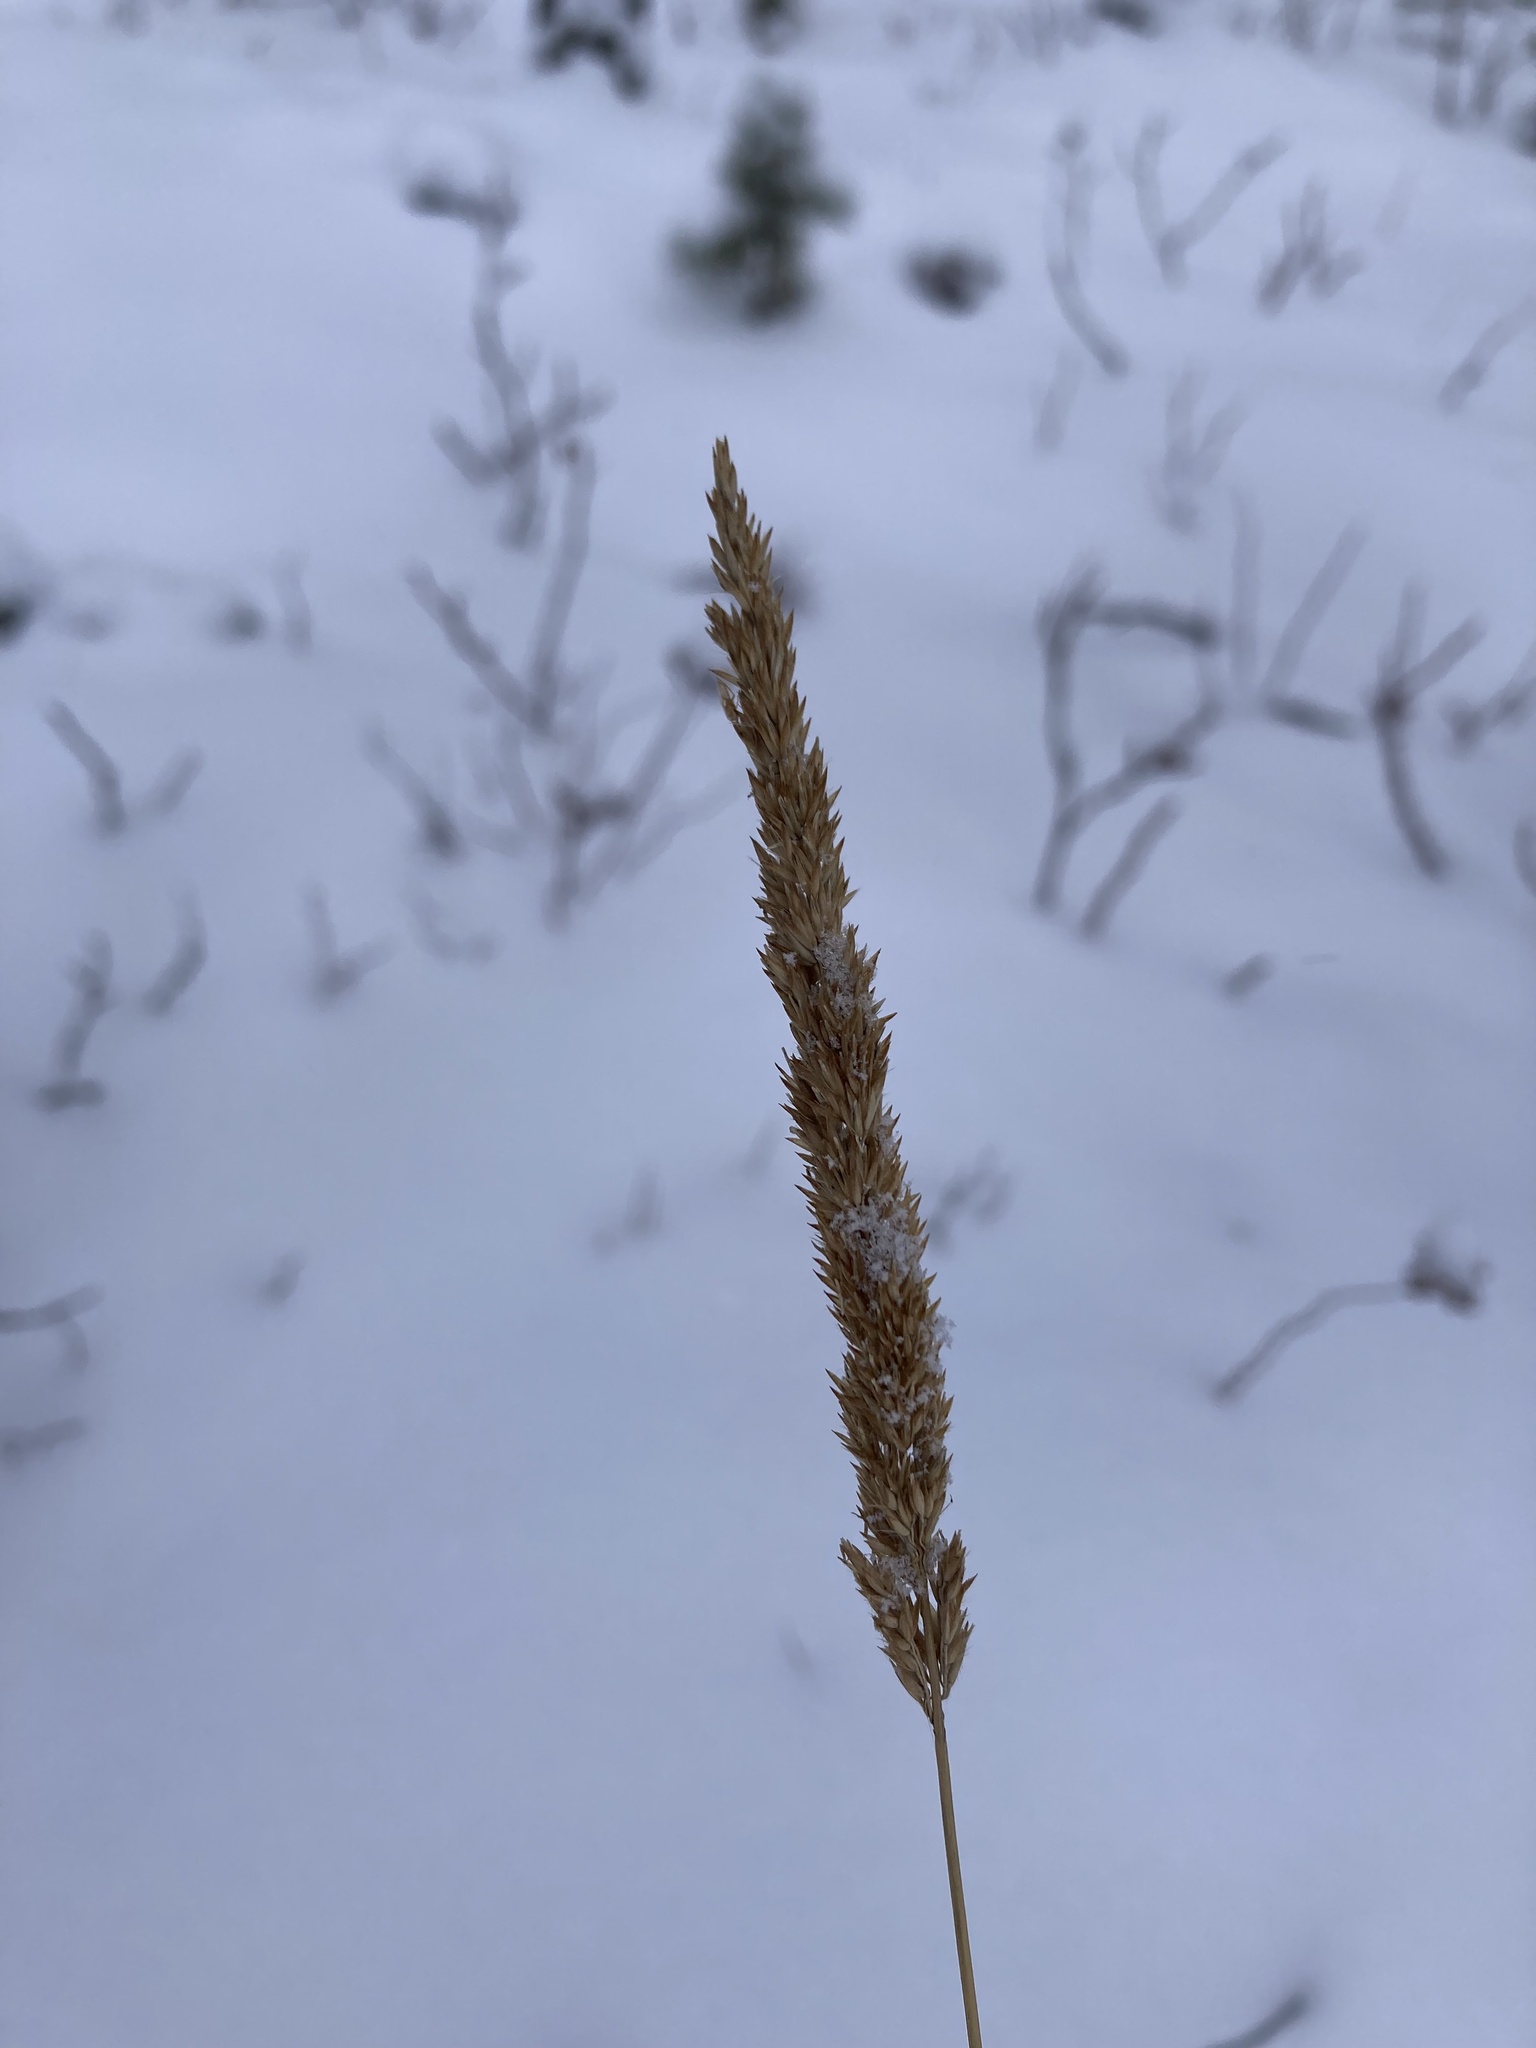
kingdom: Plantae
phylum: Tracheophyta
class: Liliopsida
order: Poales
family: Poaceae
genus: Calamagrostis
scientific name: Calamagrostis stricta
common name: Narrow small-reed
